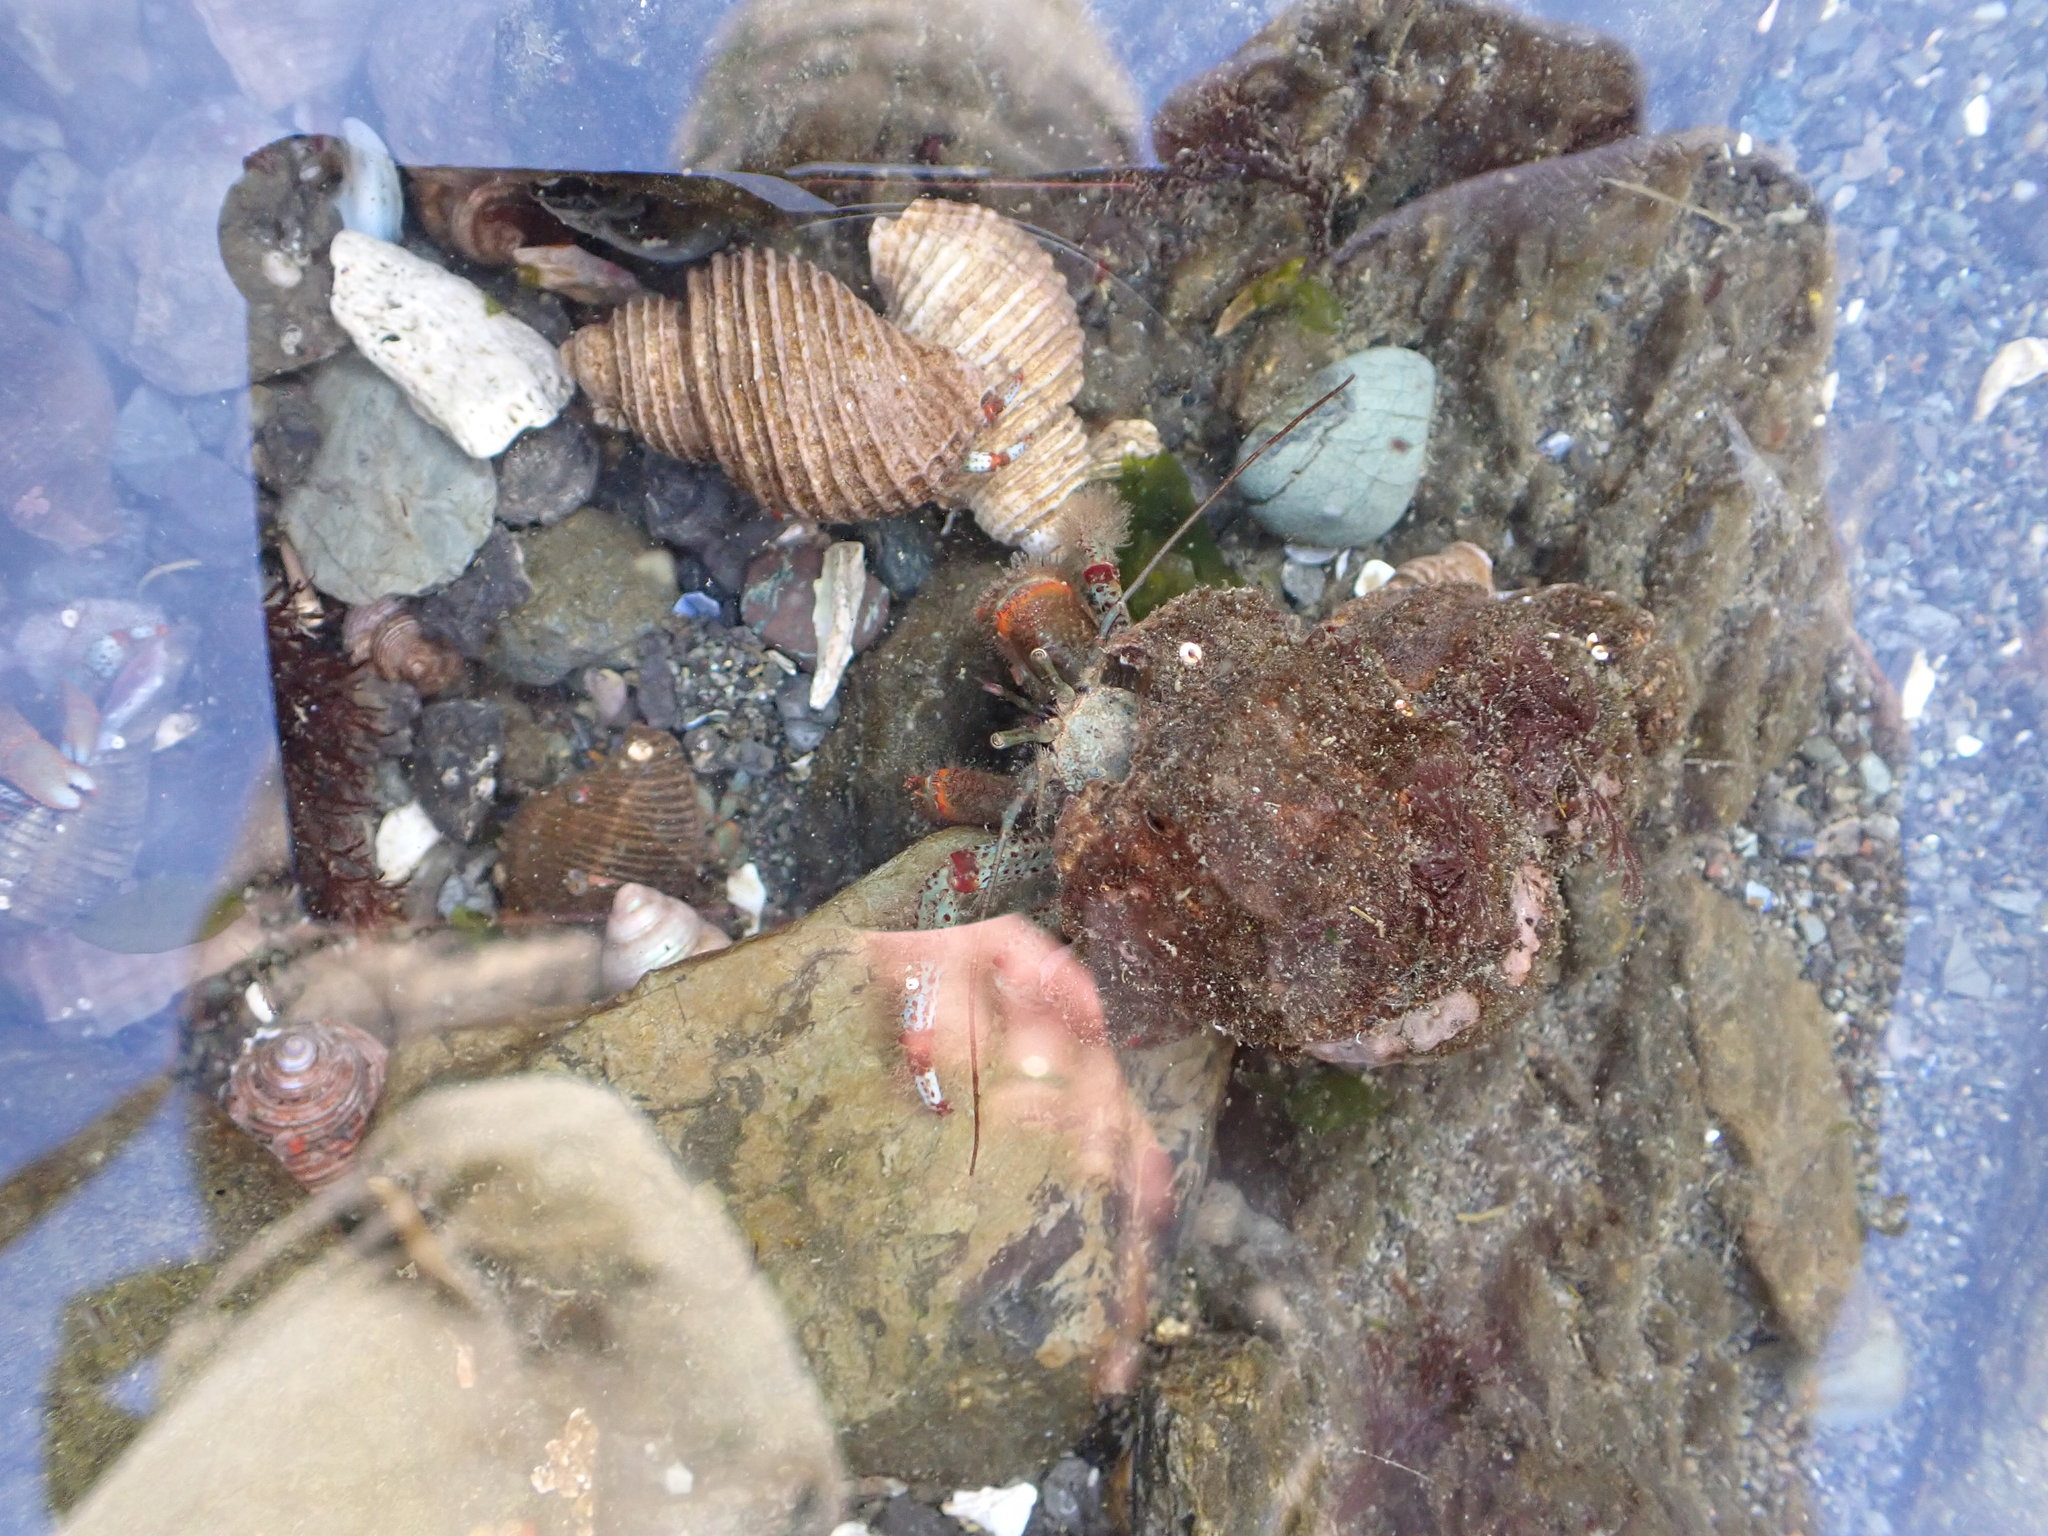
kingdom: Animalia
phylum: Arthropoda
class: Malacostraca
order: Decapoda
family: Paguridae
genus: Pagurus
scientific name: Pagurus beringanus
